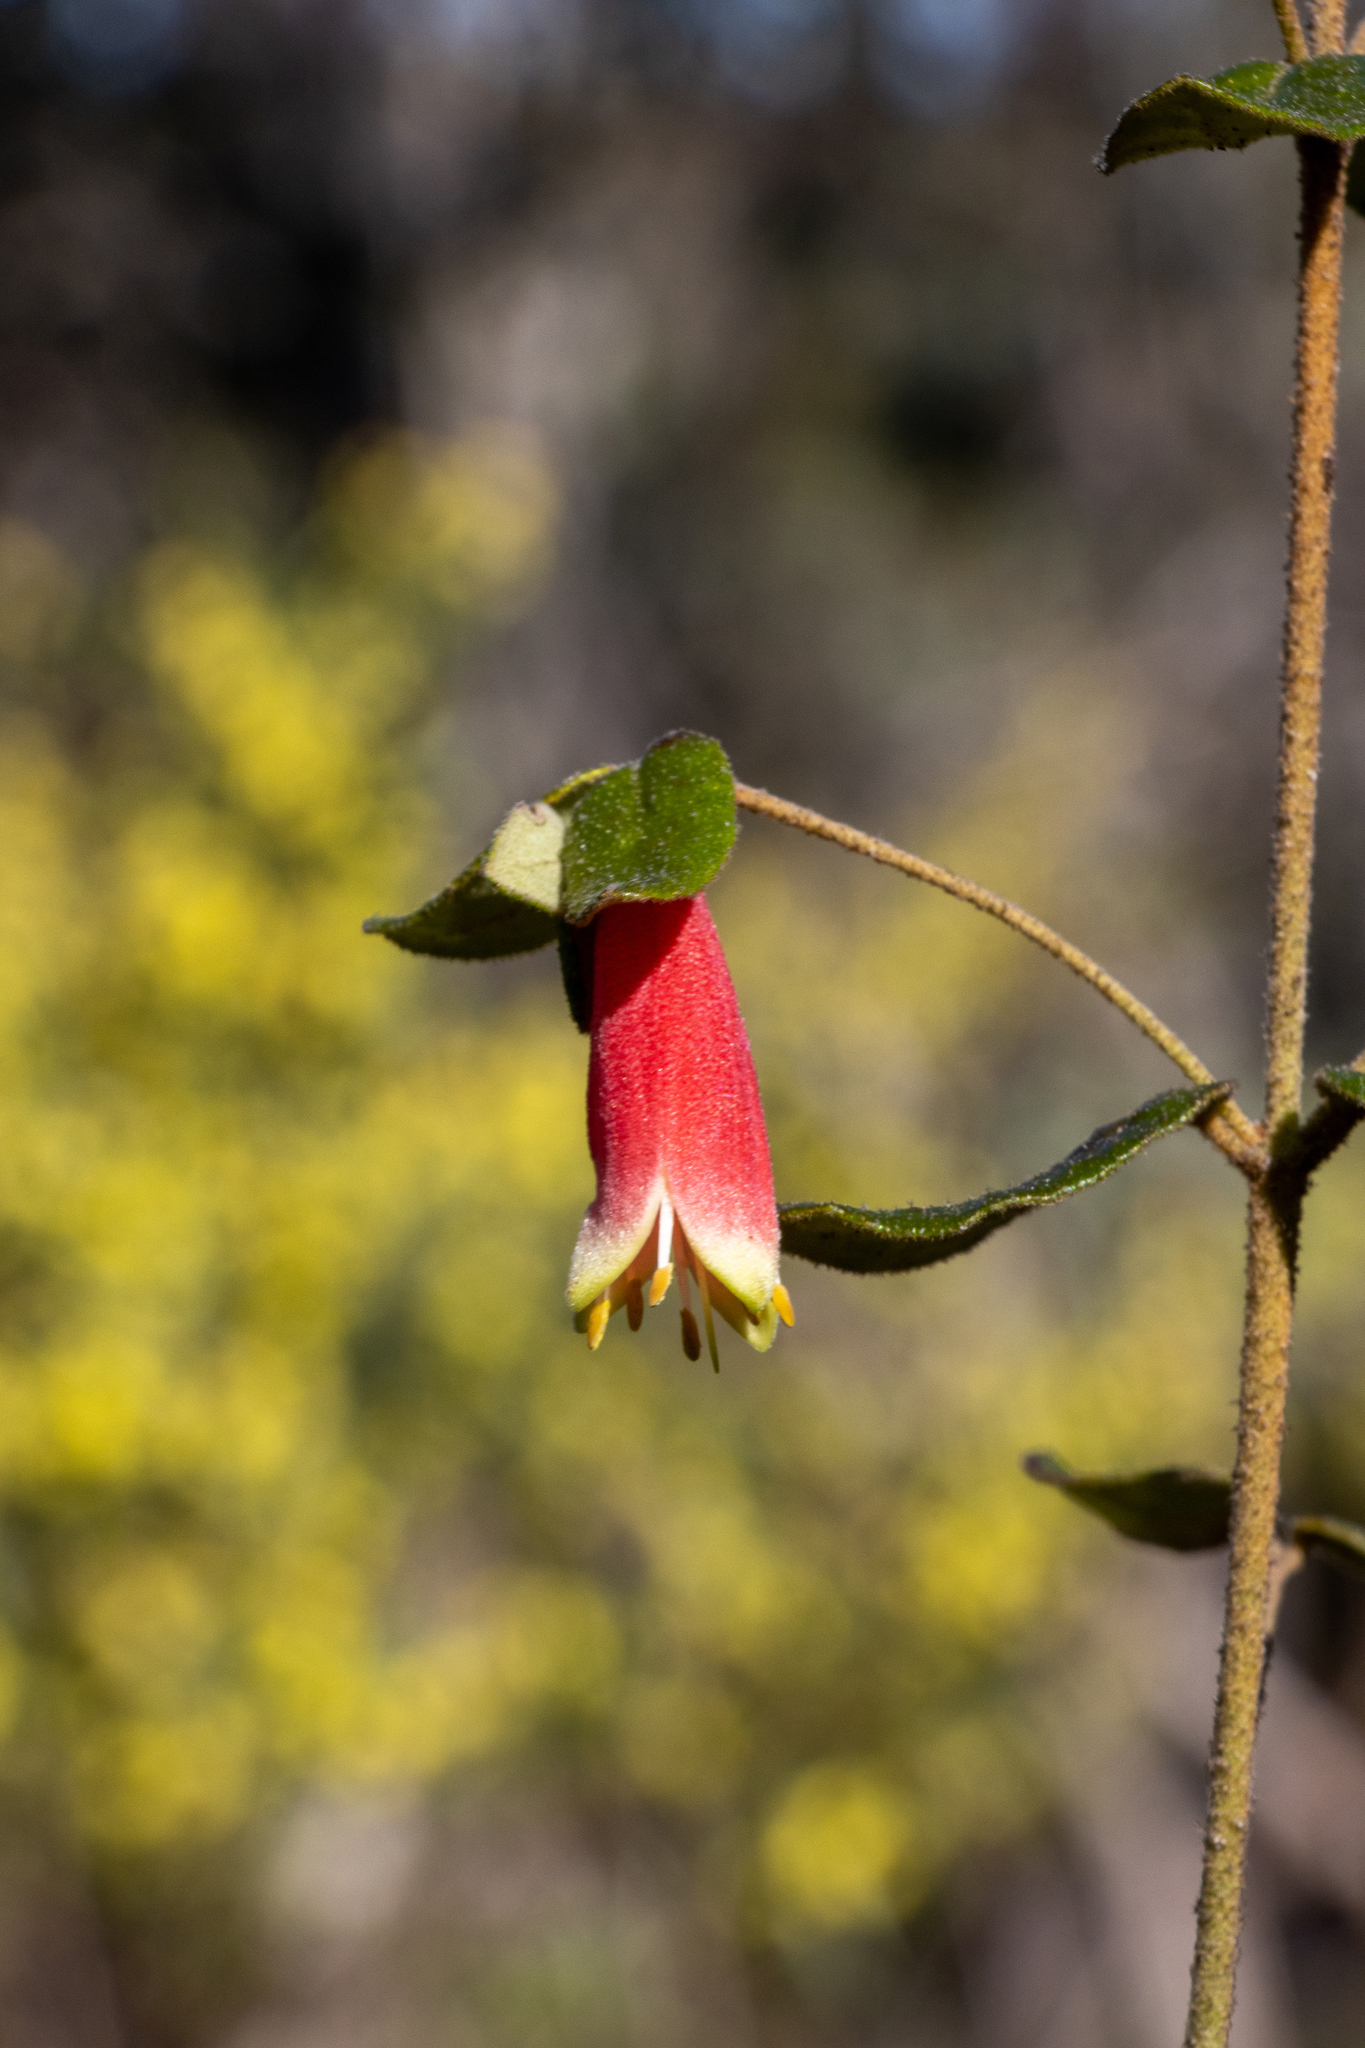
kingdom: Plantae
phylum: Tracheophyta
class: Magnoliopsida
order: Sapindales
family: Rutaceae
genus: Correa
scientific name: Correa reflexa
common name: Common correa
